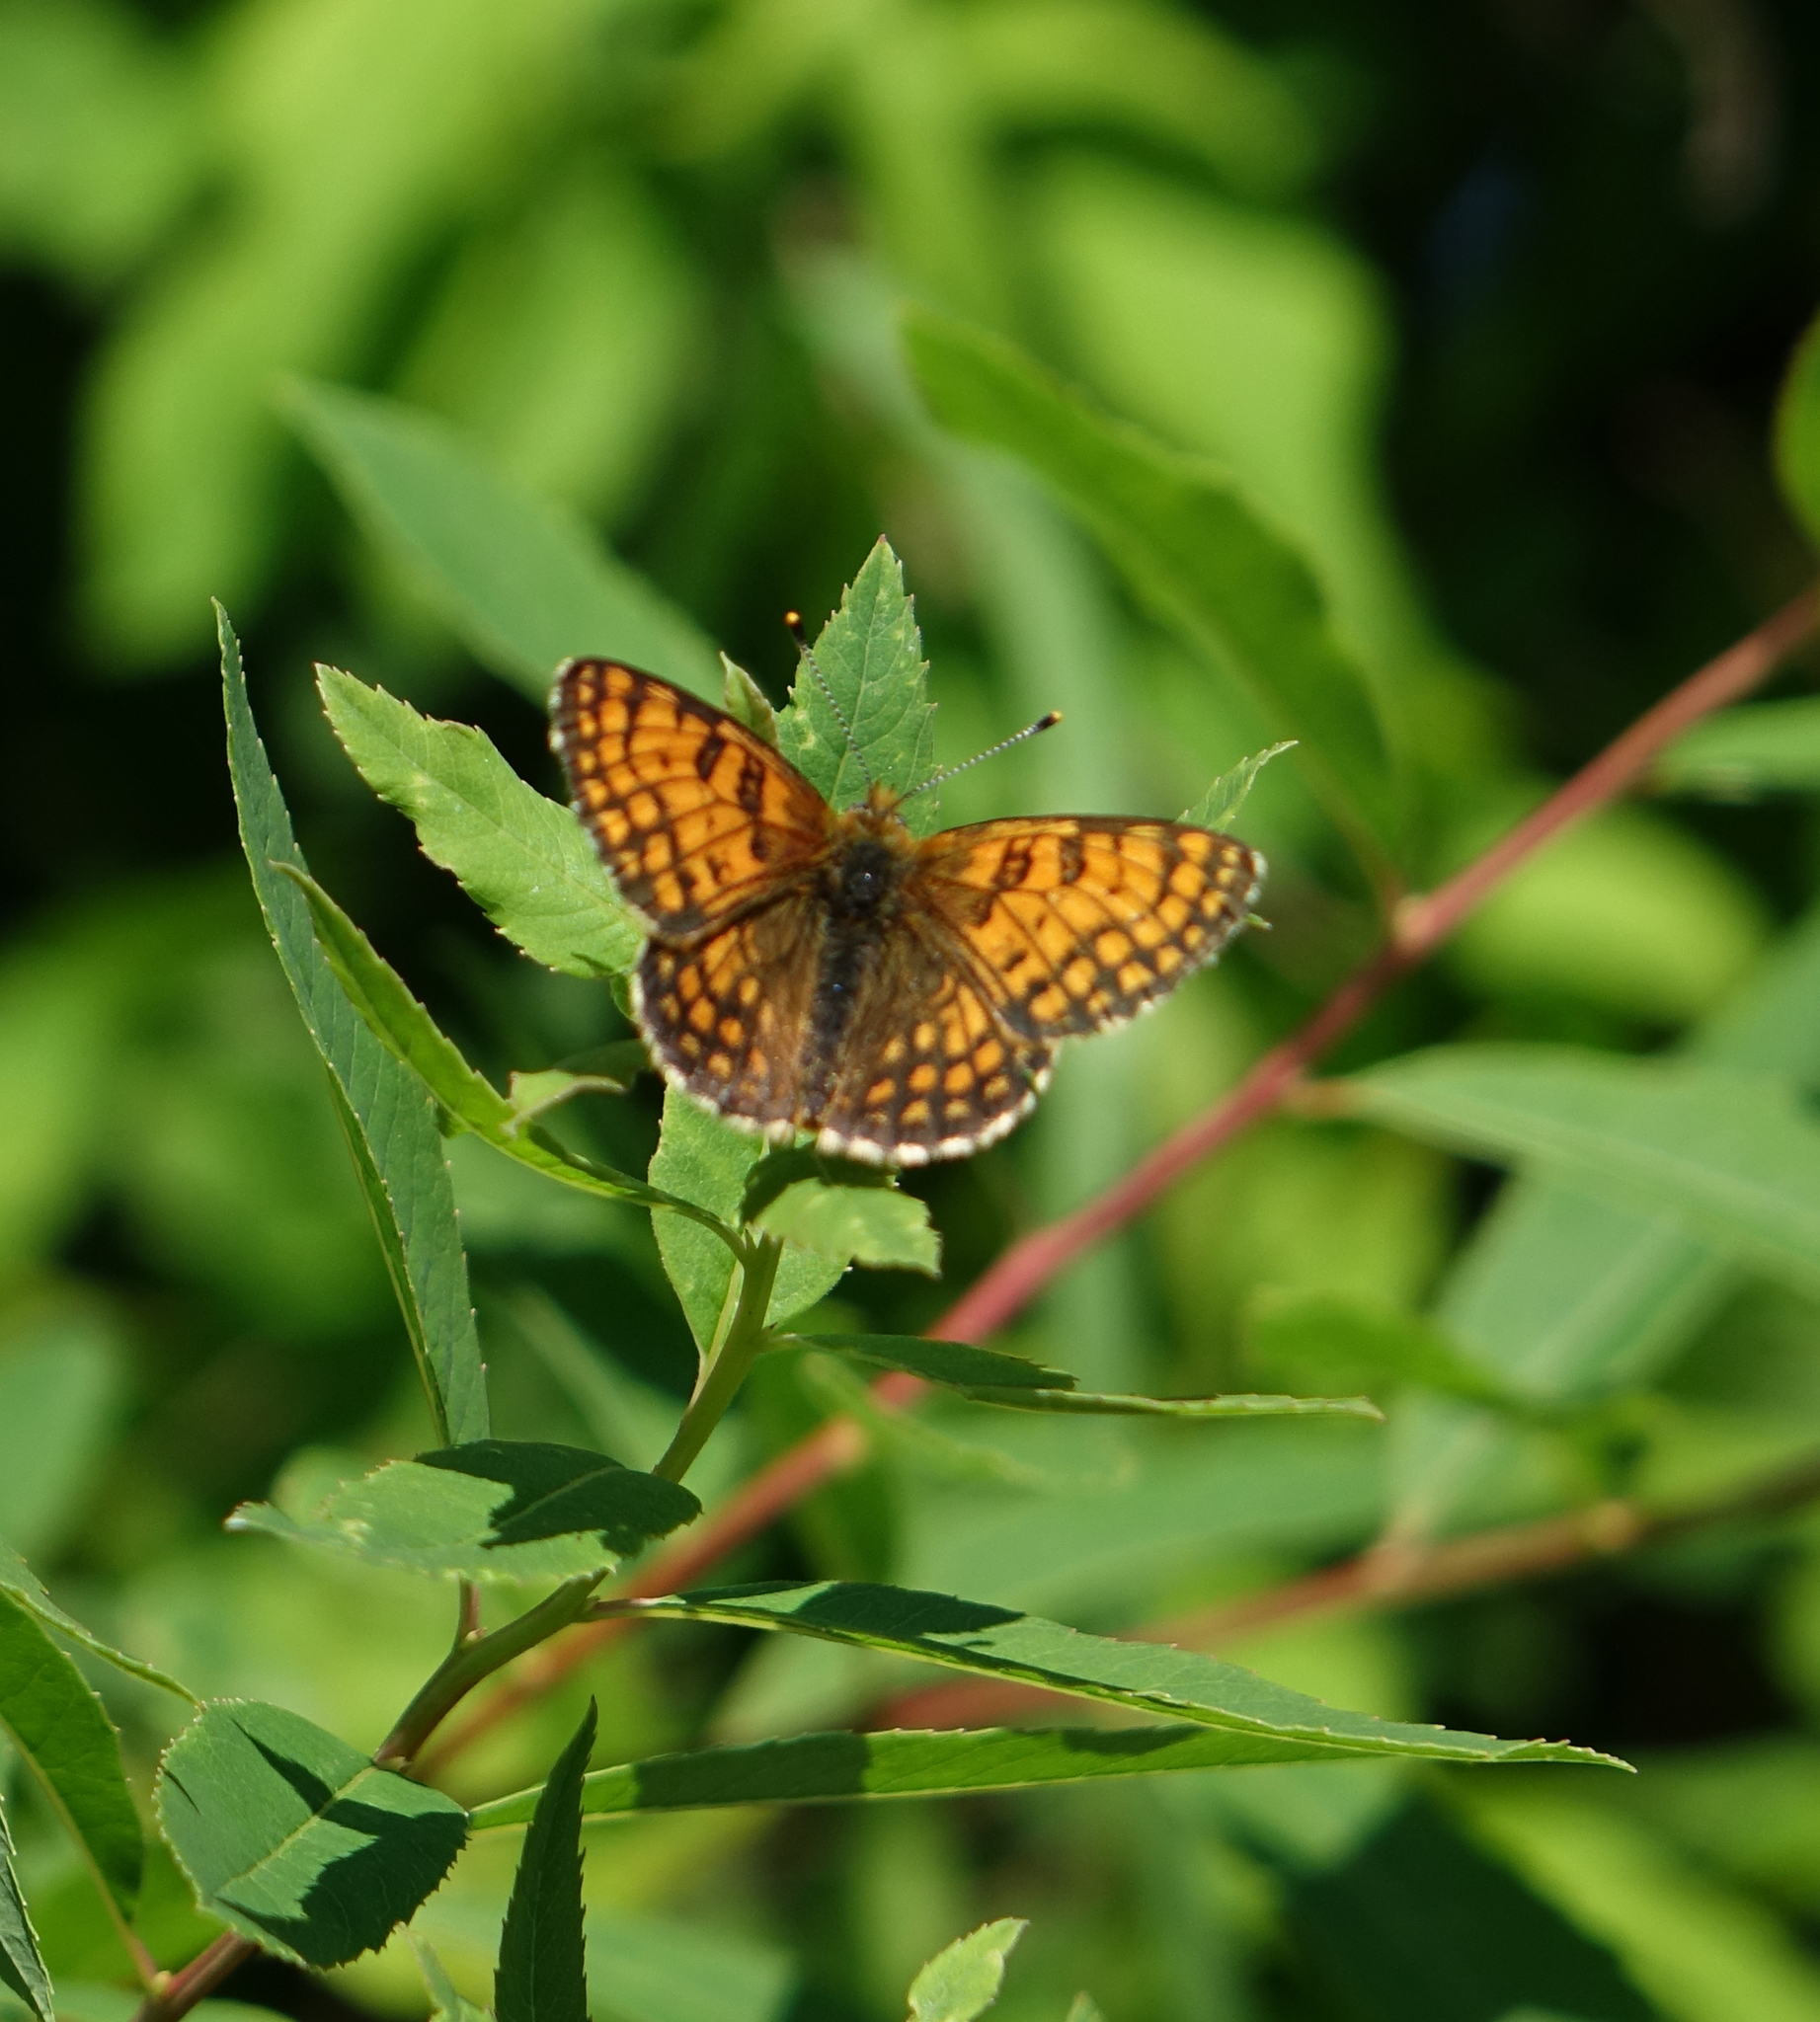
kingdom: Animalia
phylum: Arthropoda
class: Insecta
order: Lepidoptera
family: Nymphalidae
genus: Melitaea
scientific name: Melitaea arcesia
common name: Blackvein fritillary
